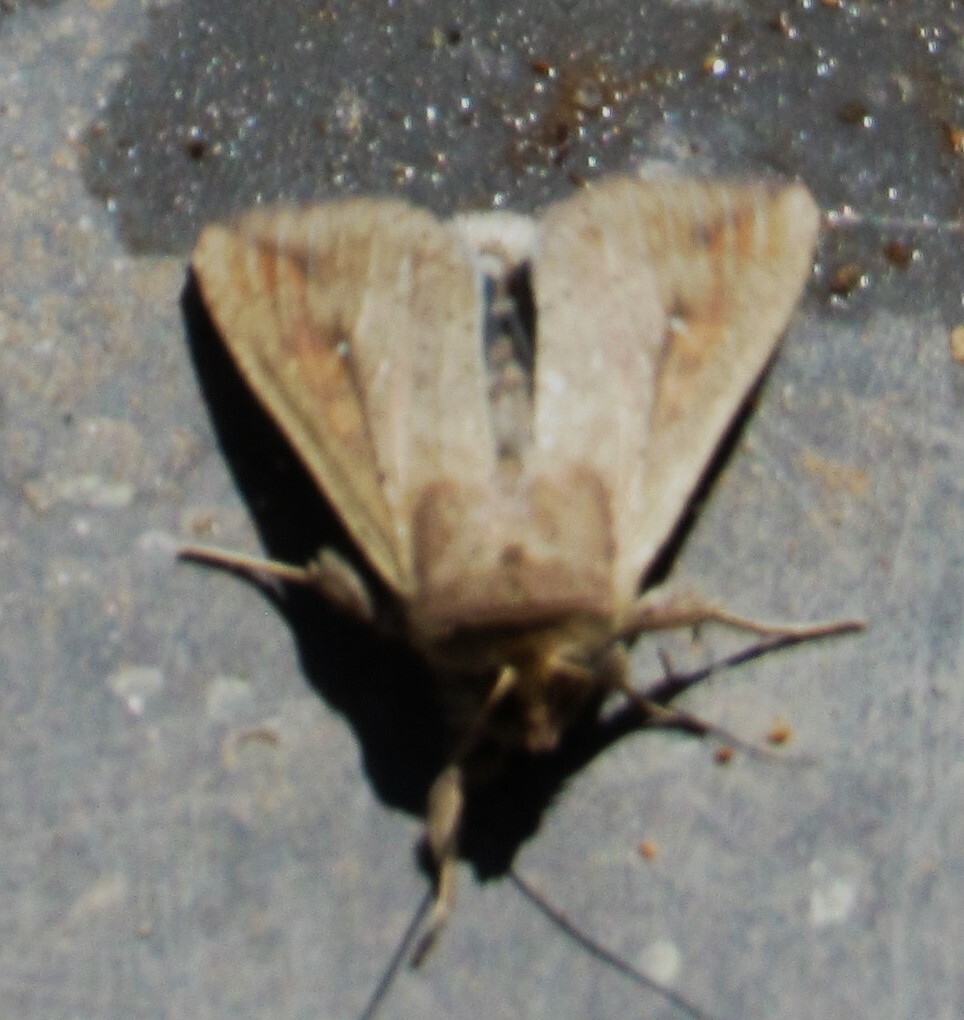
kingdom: Animalia
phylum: Arthropoda
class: Insecta
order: Lepidoptera
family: Noctuidae
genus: Mythimna
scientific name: Mythimna unipuncta
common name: White-speck
